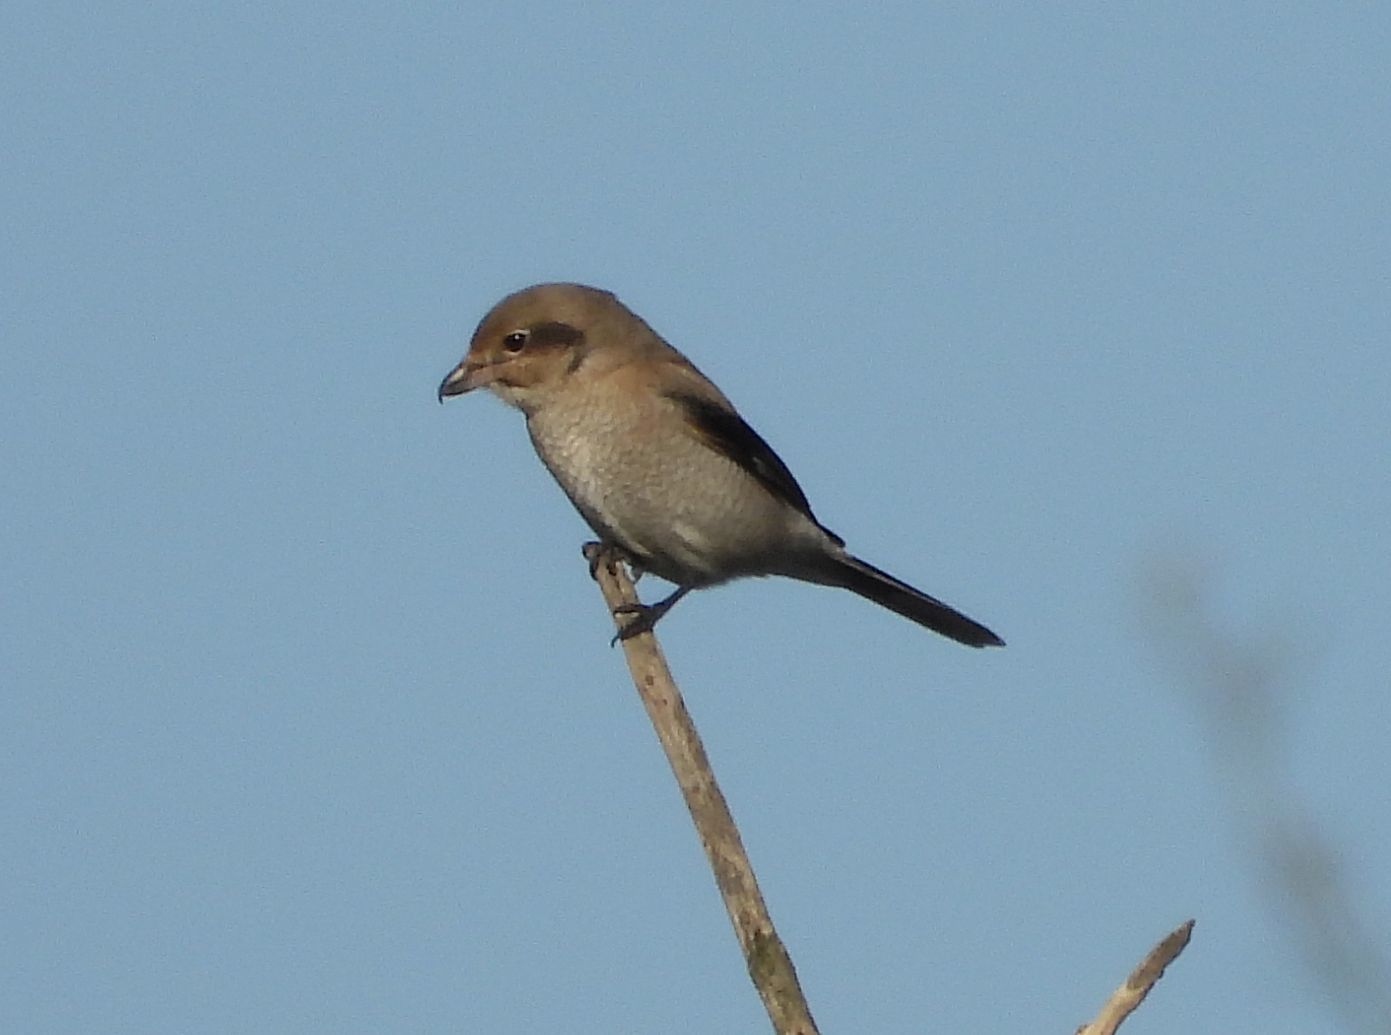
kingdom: Animalia
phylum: Chordata
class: Aves
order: Passeriformes
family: Laniidae
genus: Lanius
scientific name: Lanius borealis
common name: Northern shrike
